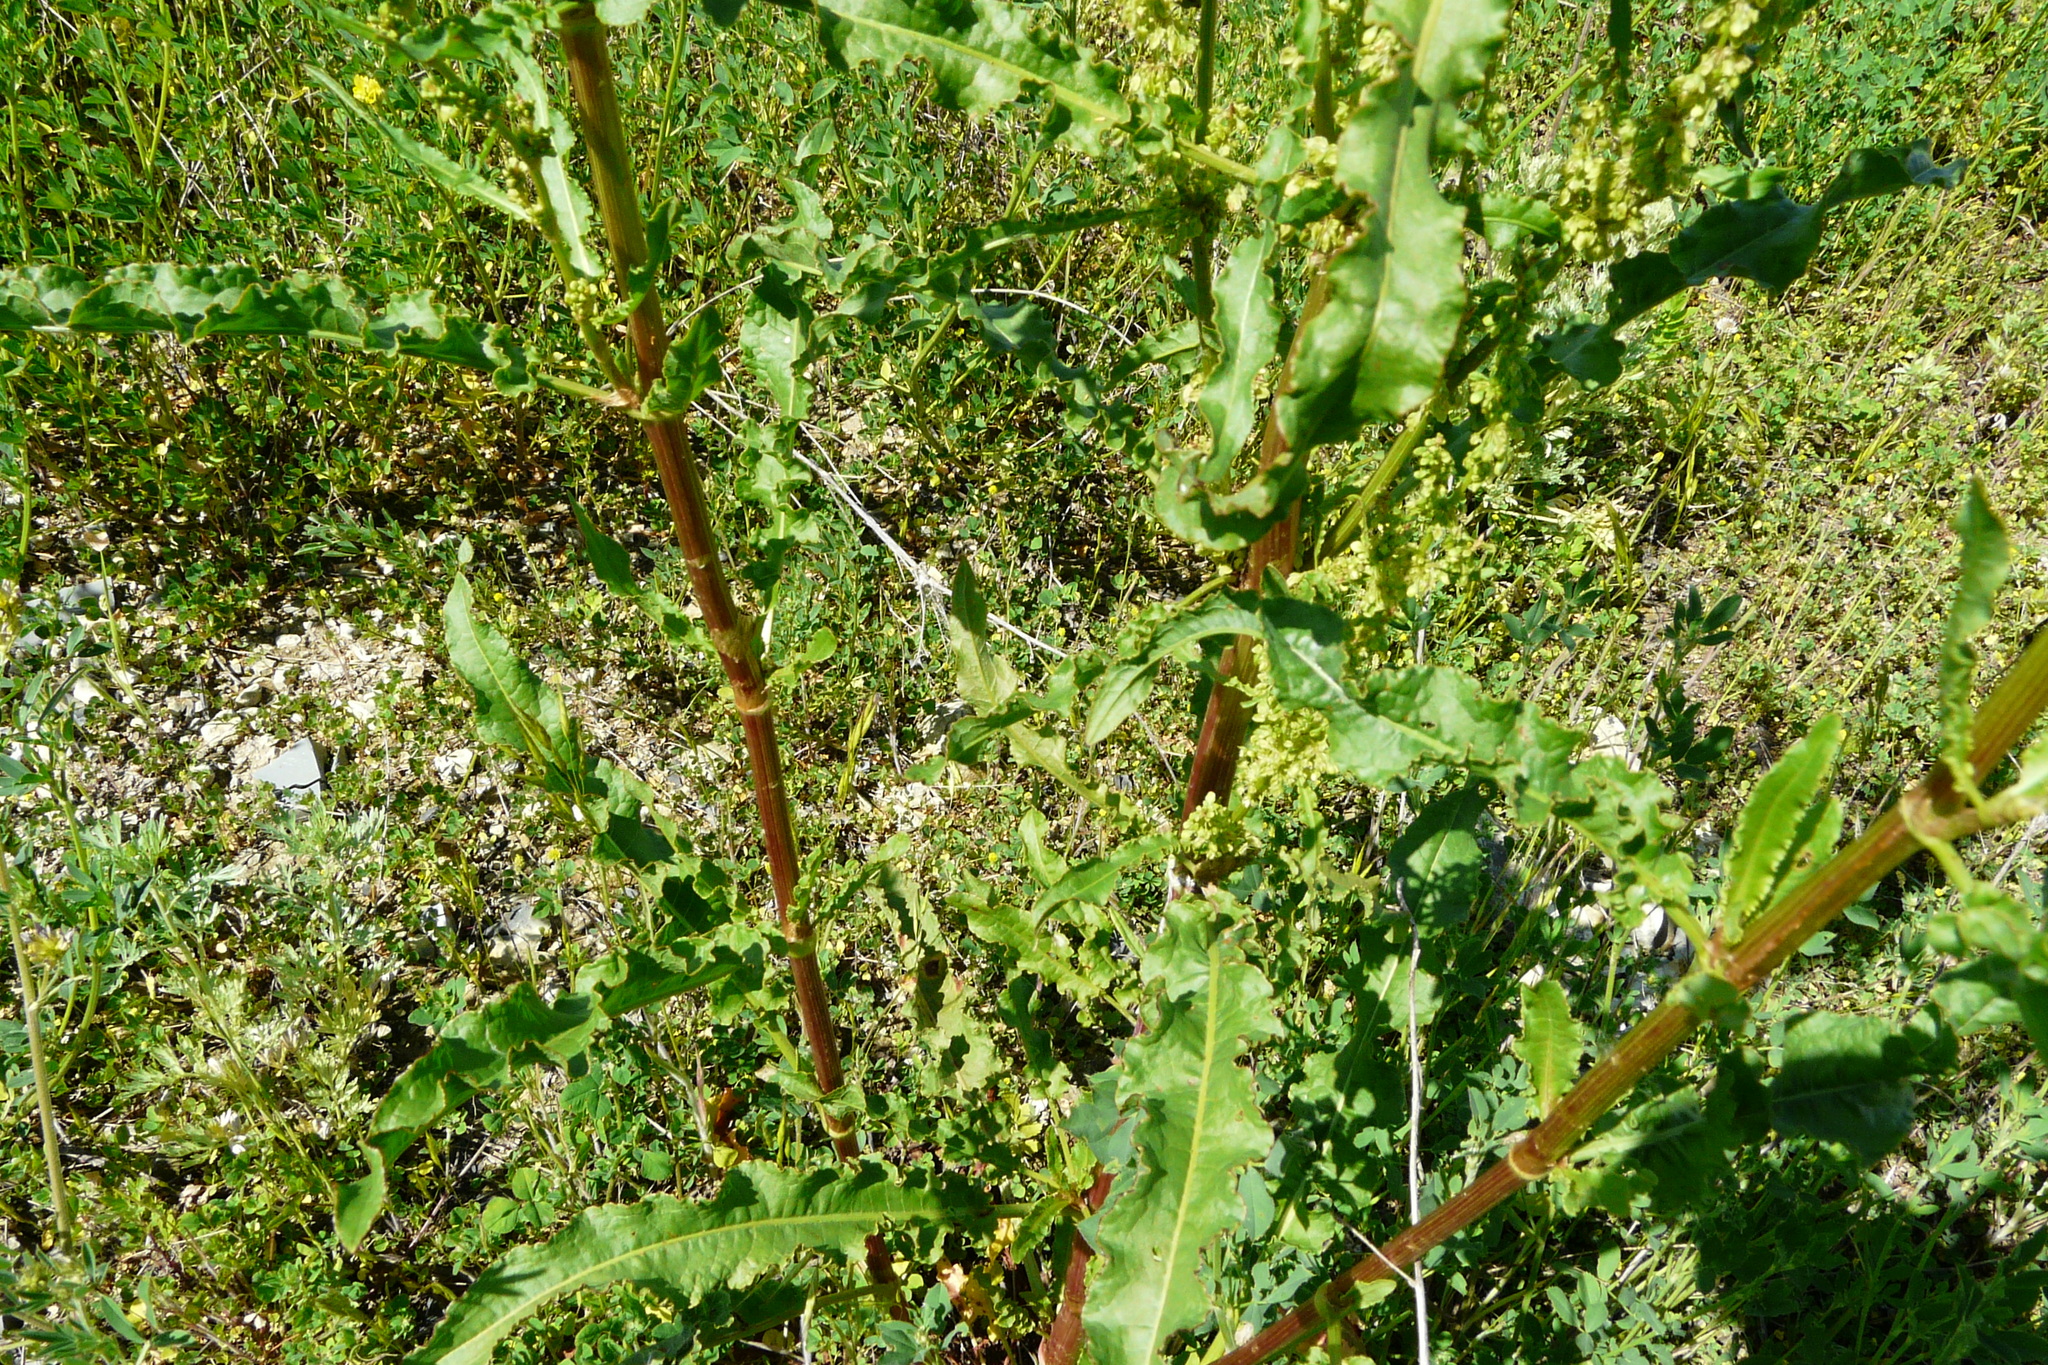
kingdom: Plantae
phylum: Tracheophyta
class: Magnoliopsida
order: Caryophyllales
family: Polygonaceae
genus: Rumex
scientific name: Rumex crispus
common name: Curled dock
